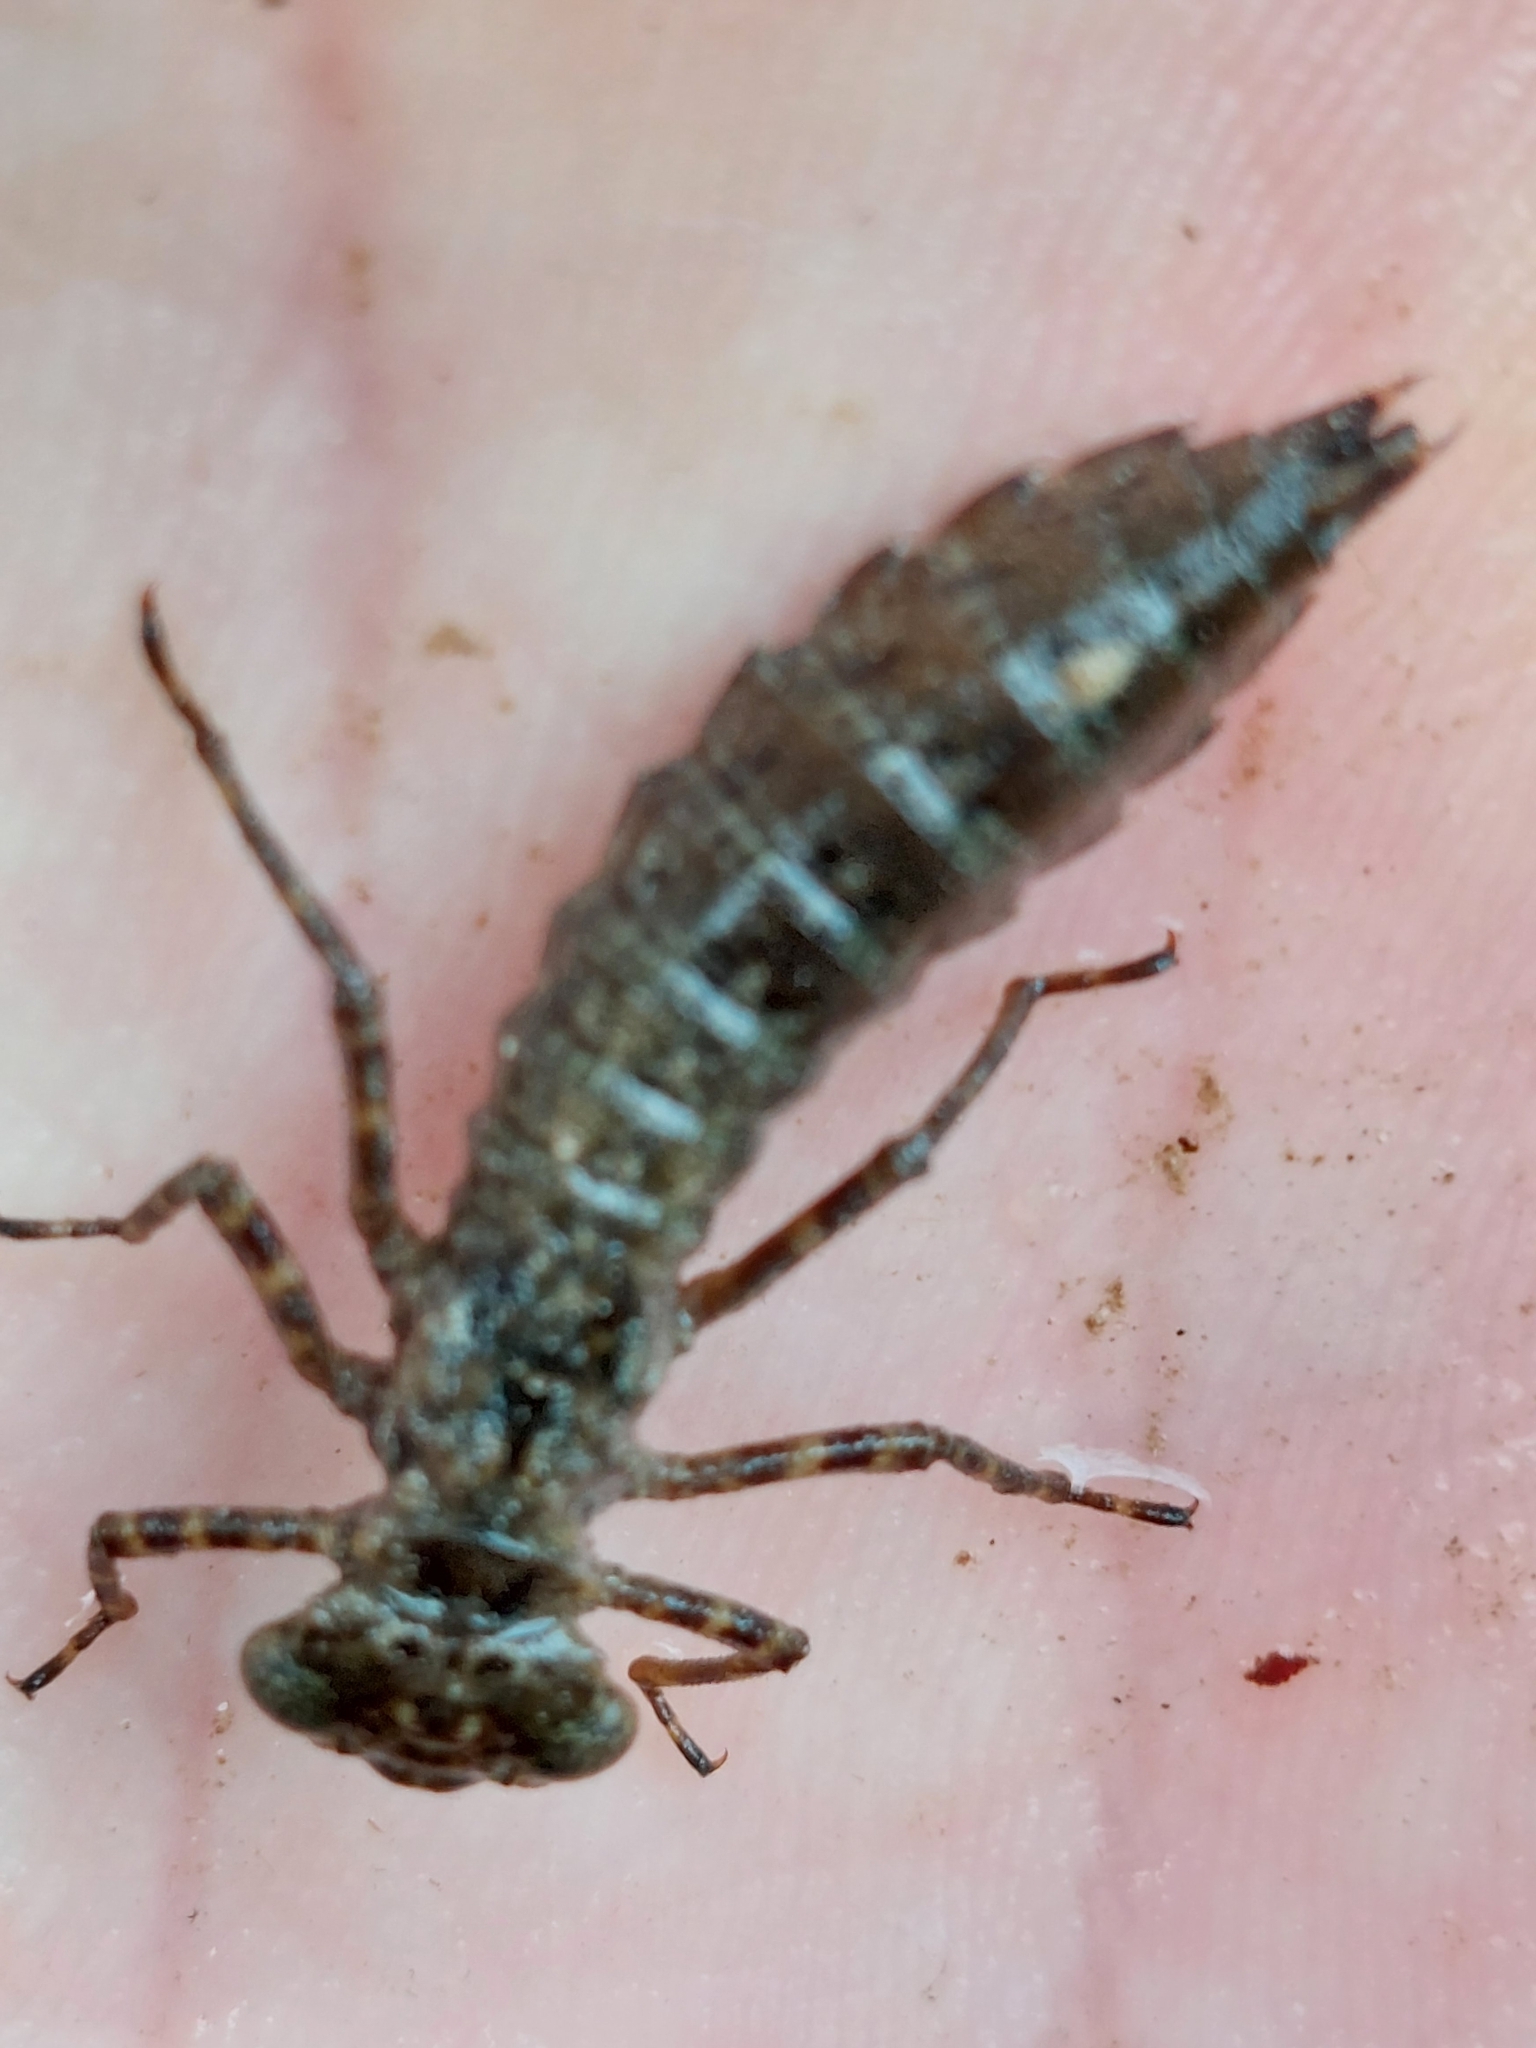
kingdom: Animalia
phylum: Arthropoda
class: Insecta
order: Odonata
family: Aeshnidae
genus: Boyeria
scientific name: Boyeria cretensis
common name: Creatan spectre
